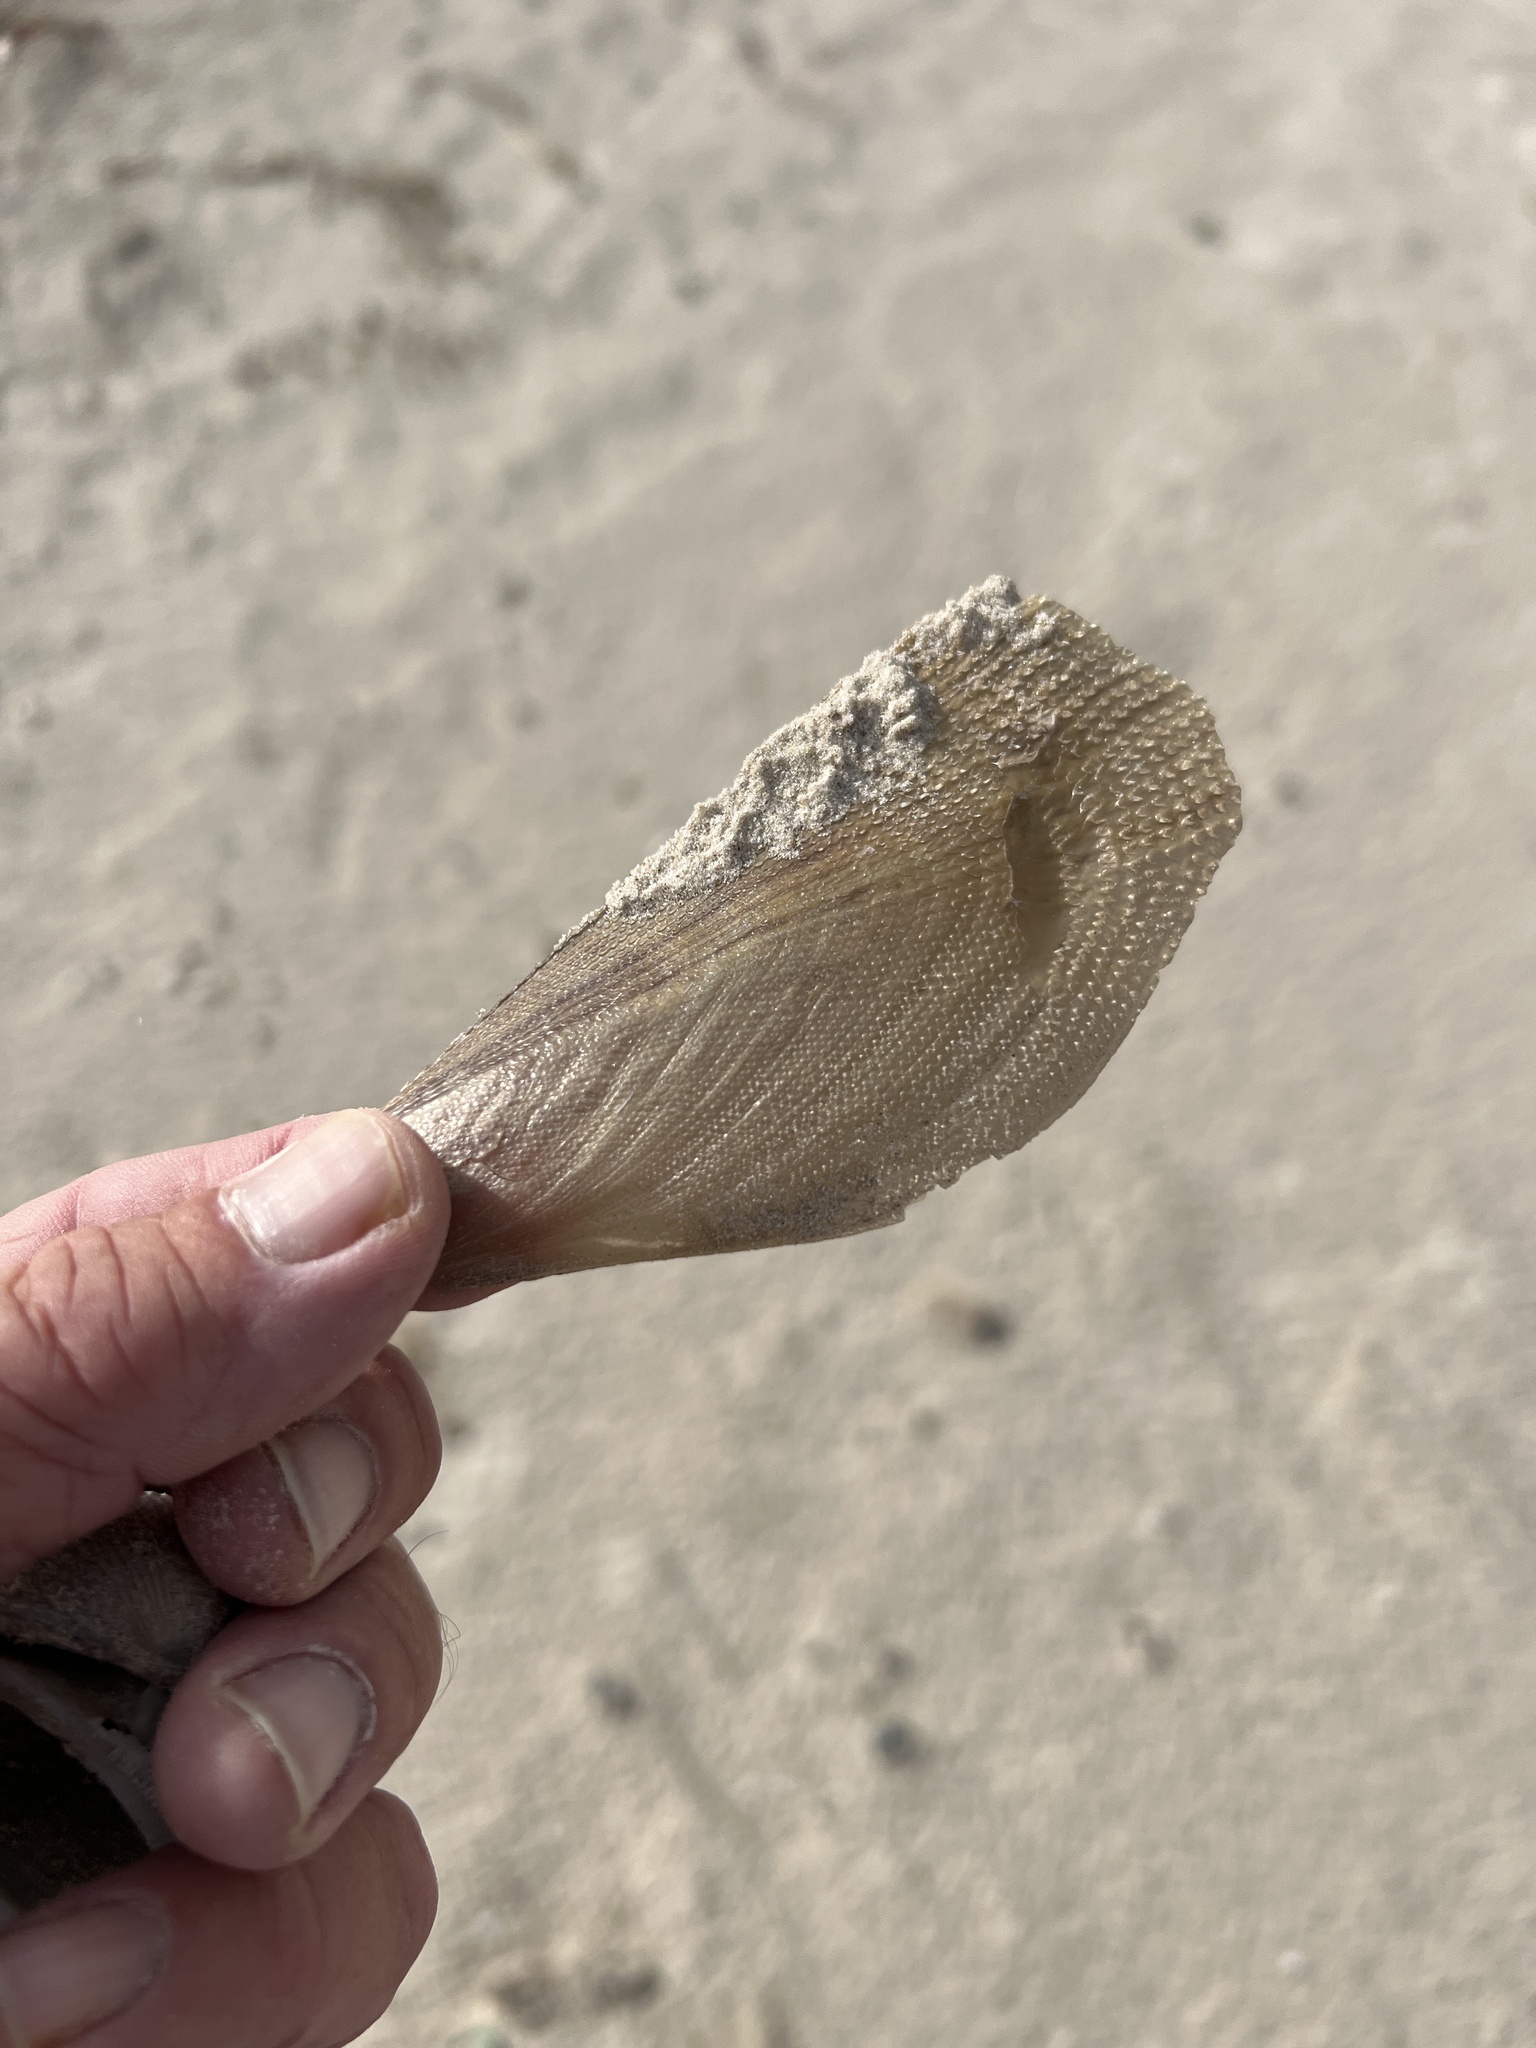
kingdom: Animalia
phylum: Mollusca
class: Bivalvia
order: Ostreida
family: Pinnidae
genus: Atrina
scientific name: Atrina serrata
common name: Saw-toothed penshell
